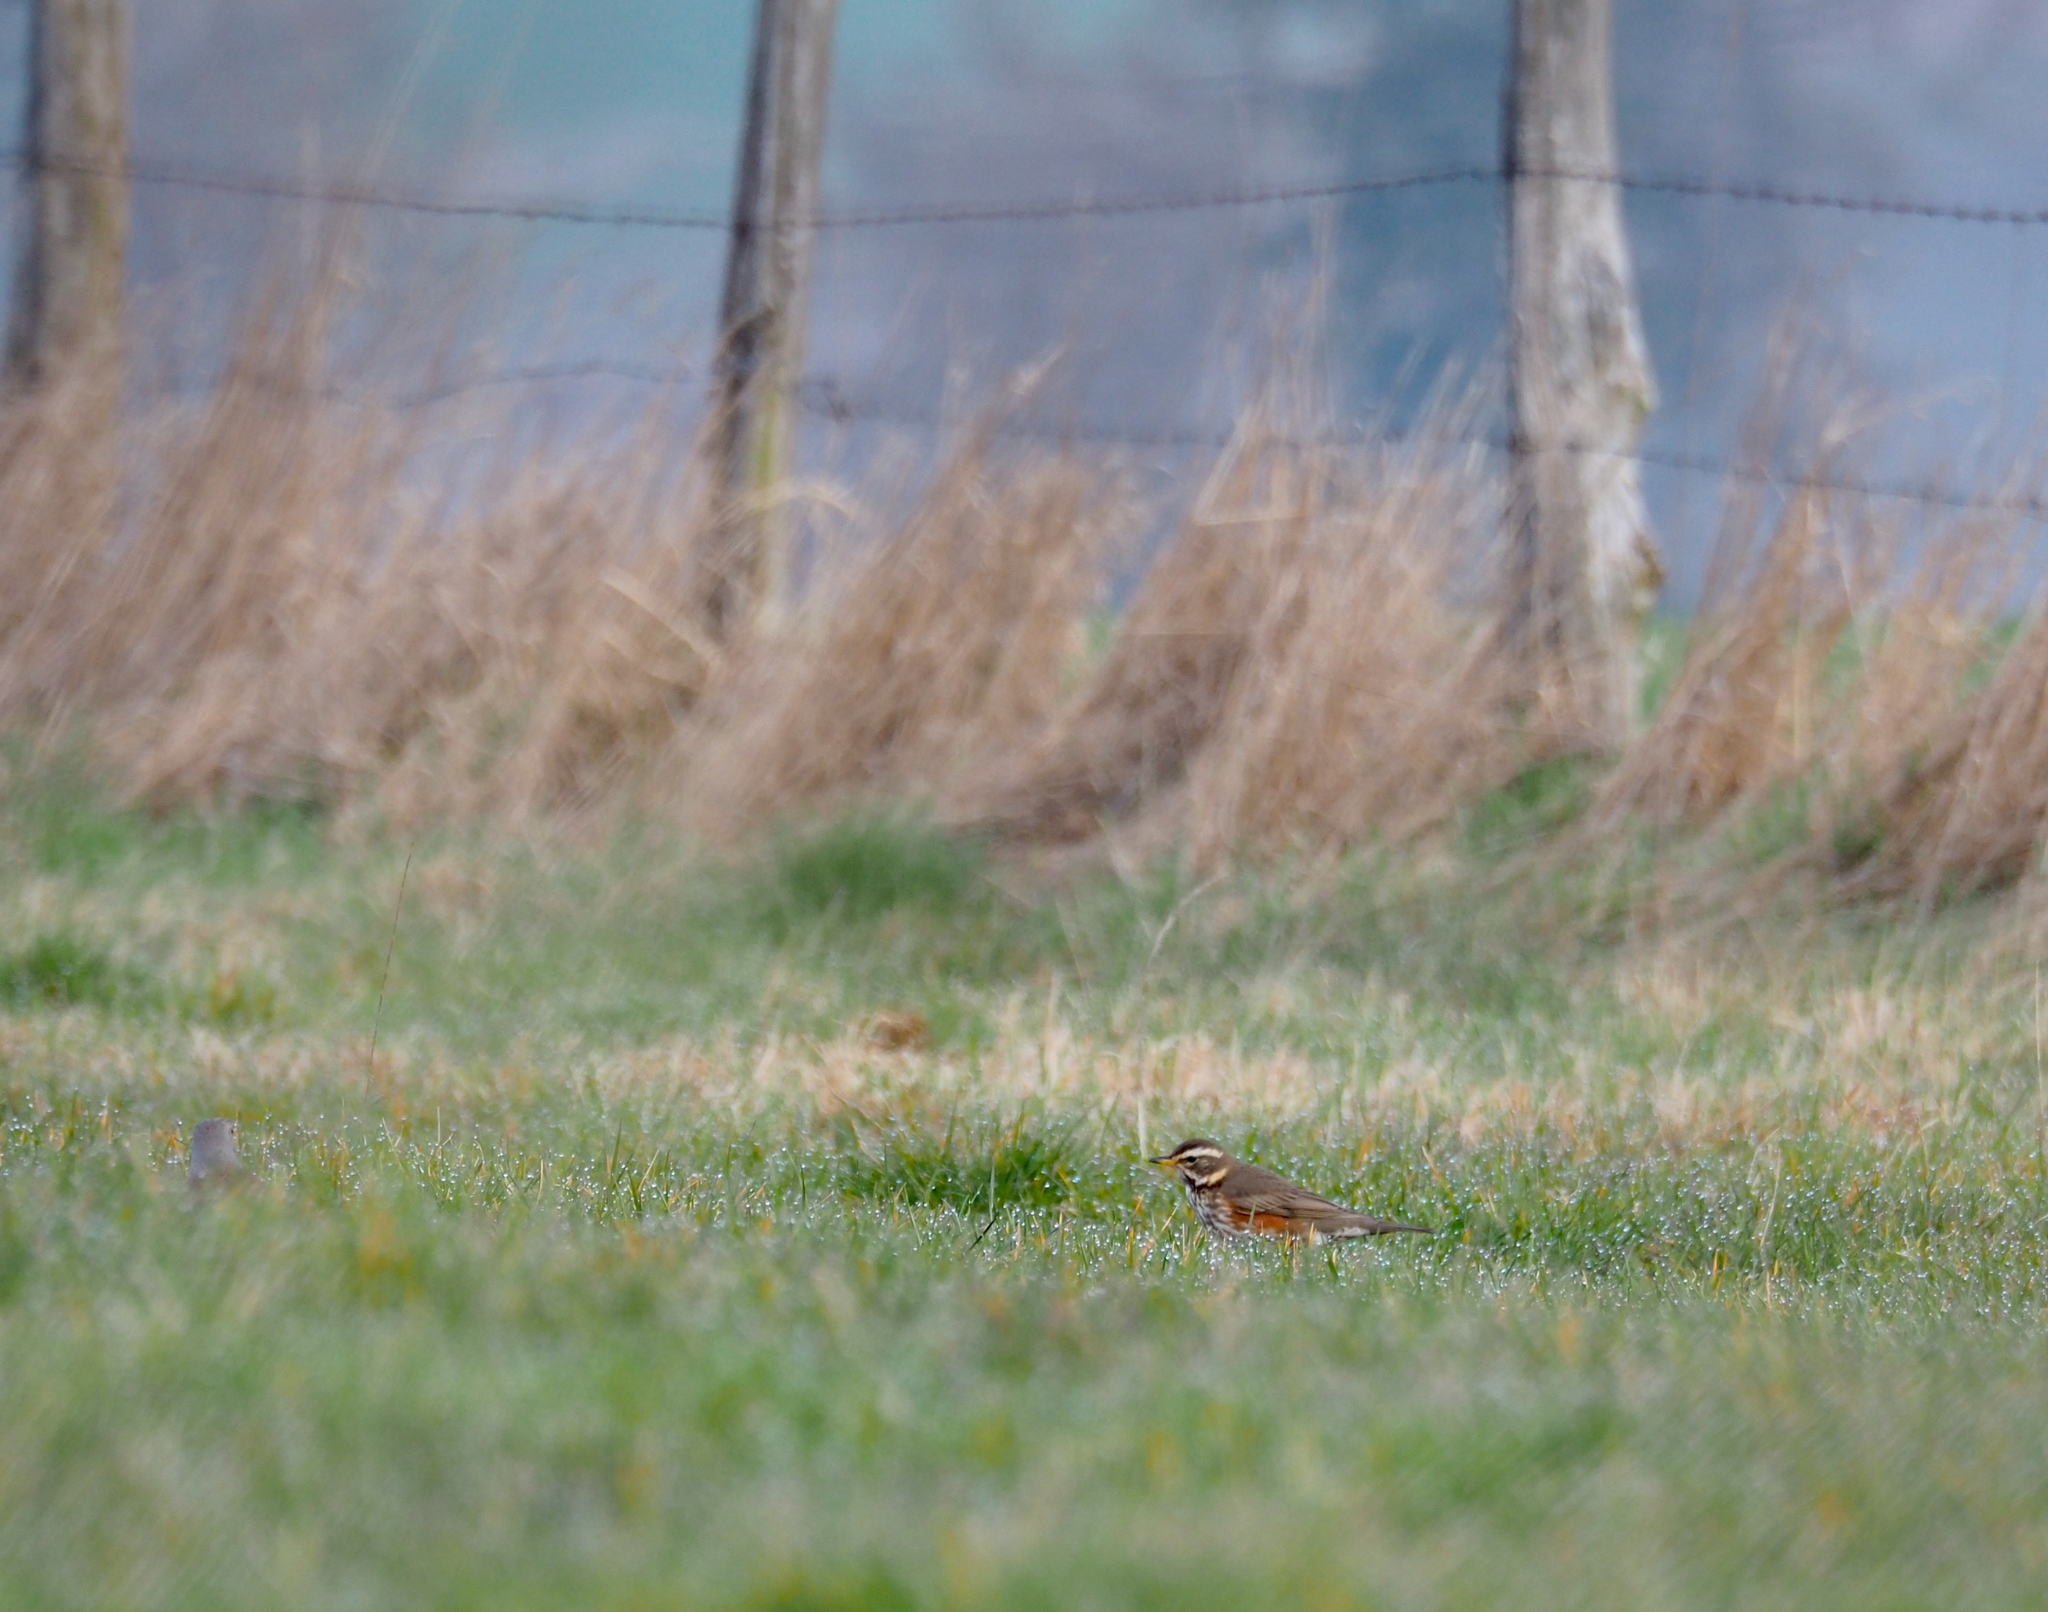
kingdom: Animalia
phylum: Chordata
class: Aves
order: Passeriformes
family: Turdidae
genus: Turdus
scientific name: Turdus iliacus
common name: Redwing
